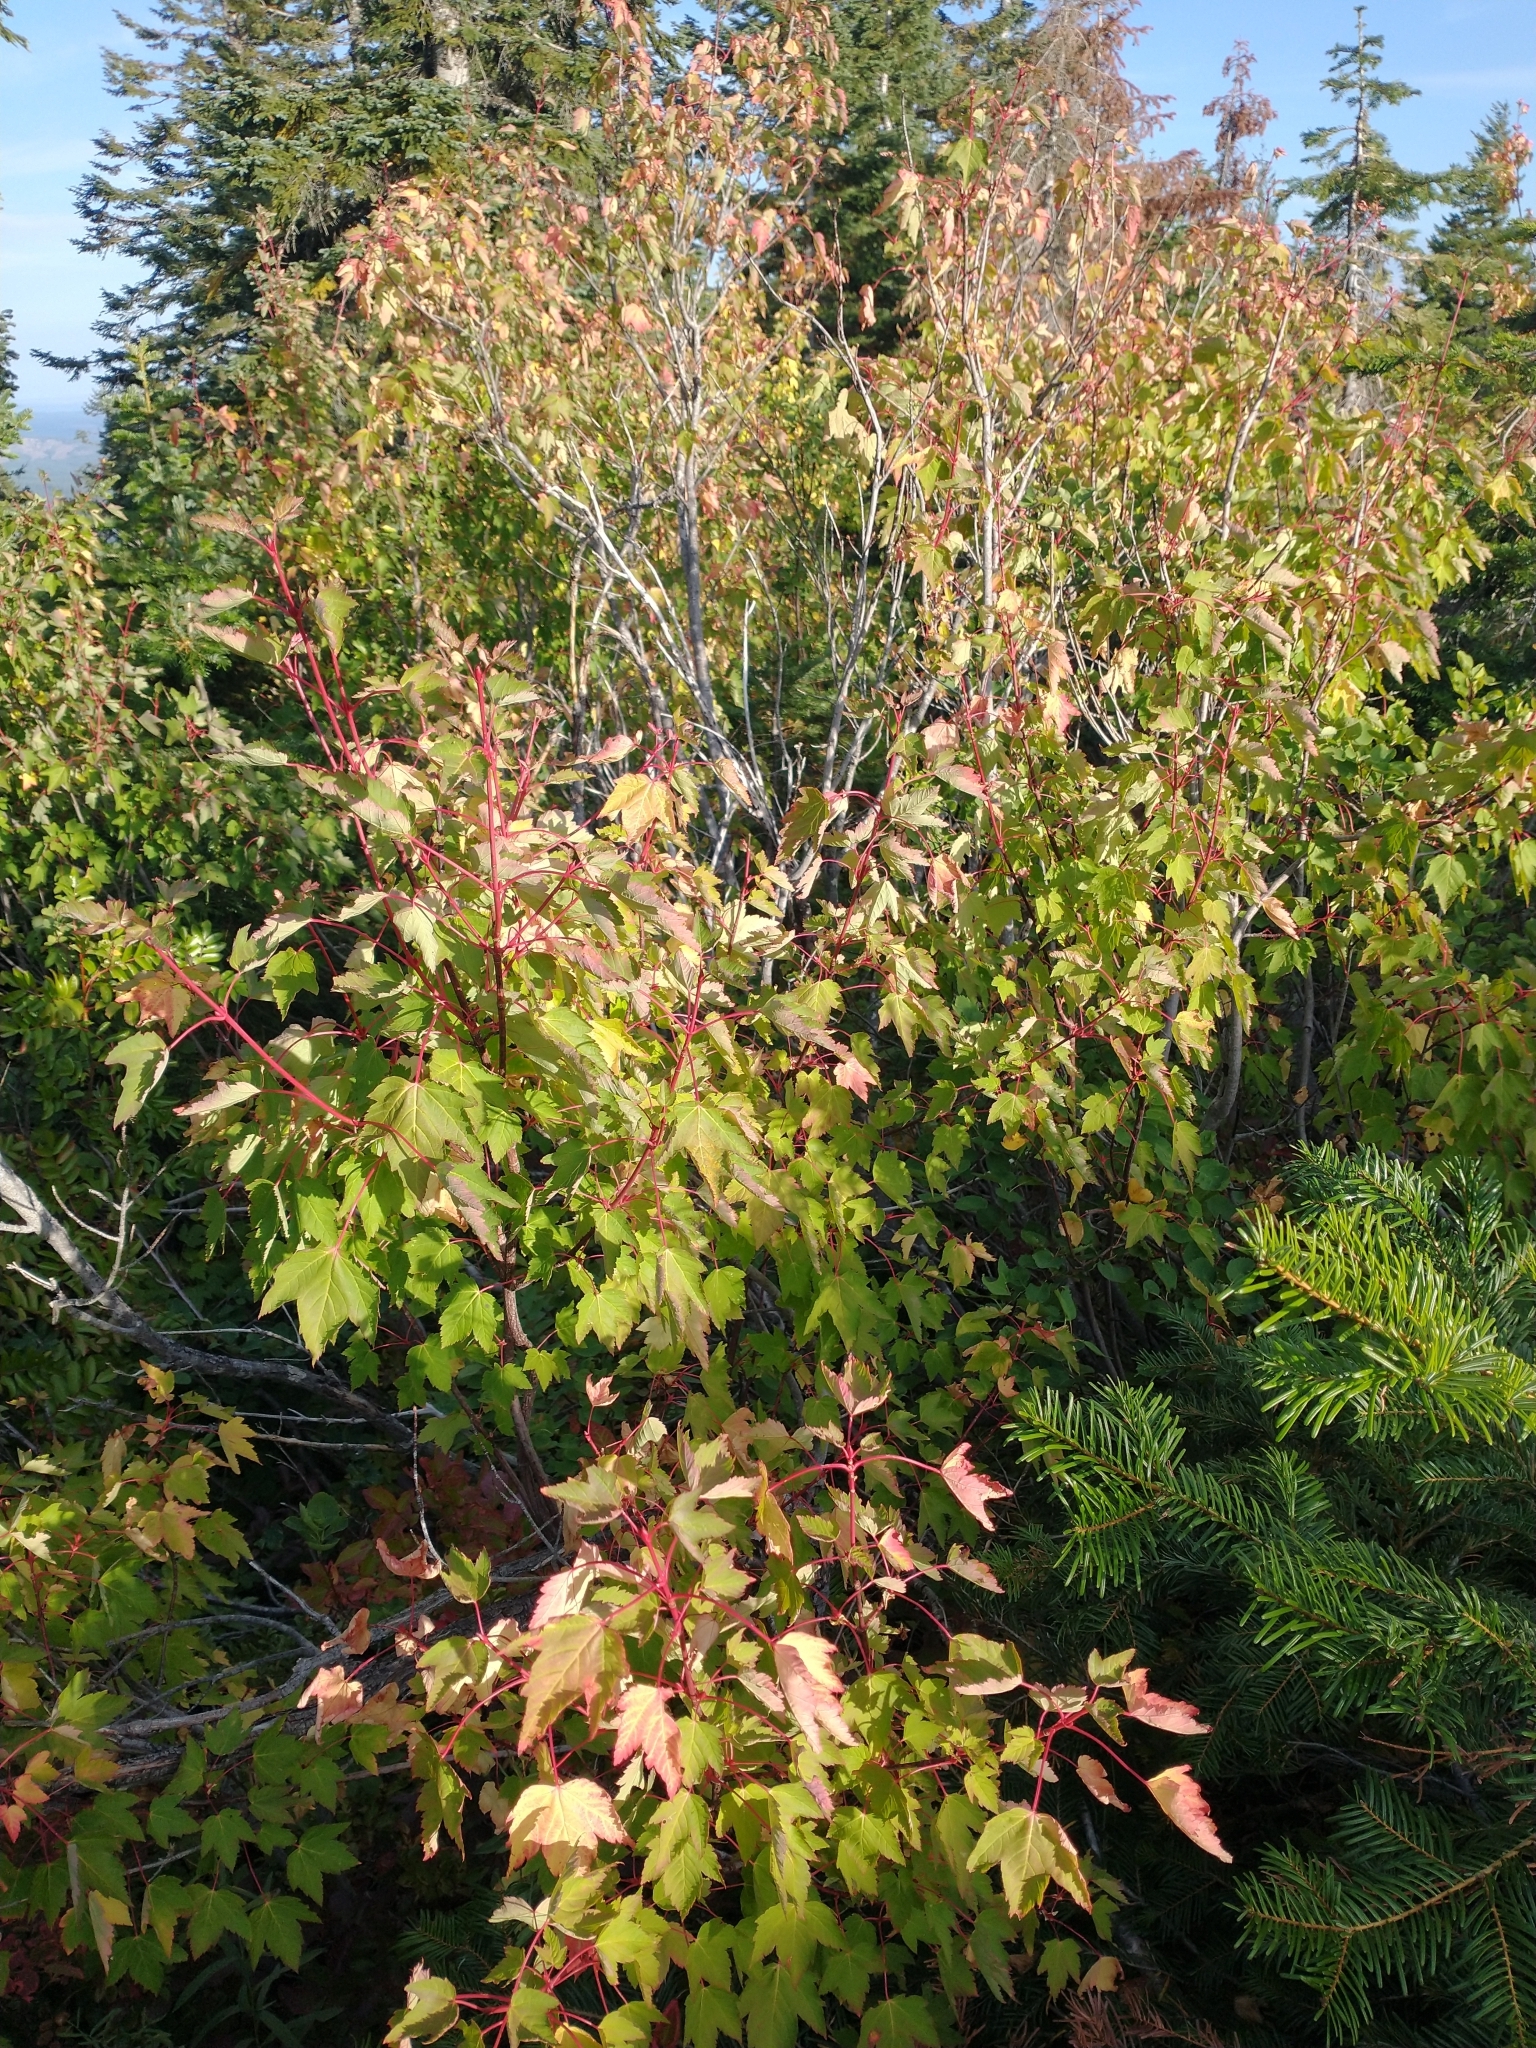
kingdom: Plantae
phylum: Tracheophyta
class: Magnoliopsida
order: Sapindales
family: Sapindaceae
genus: Acer
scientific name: Acer glabrum
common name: Rocky mountain maple
